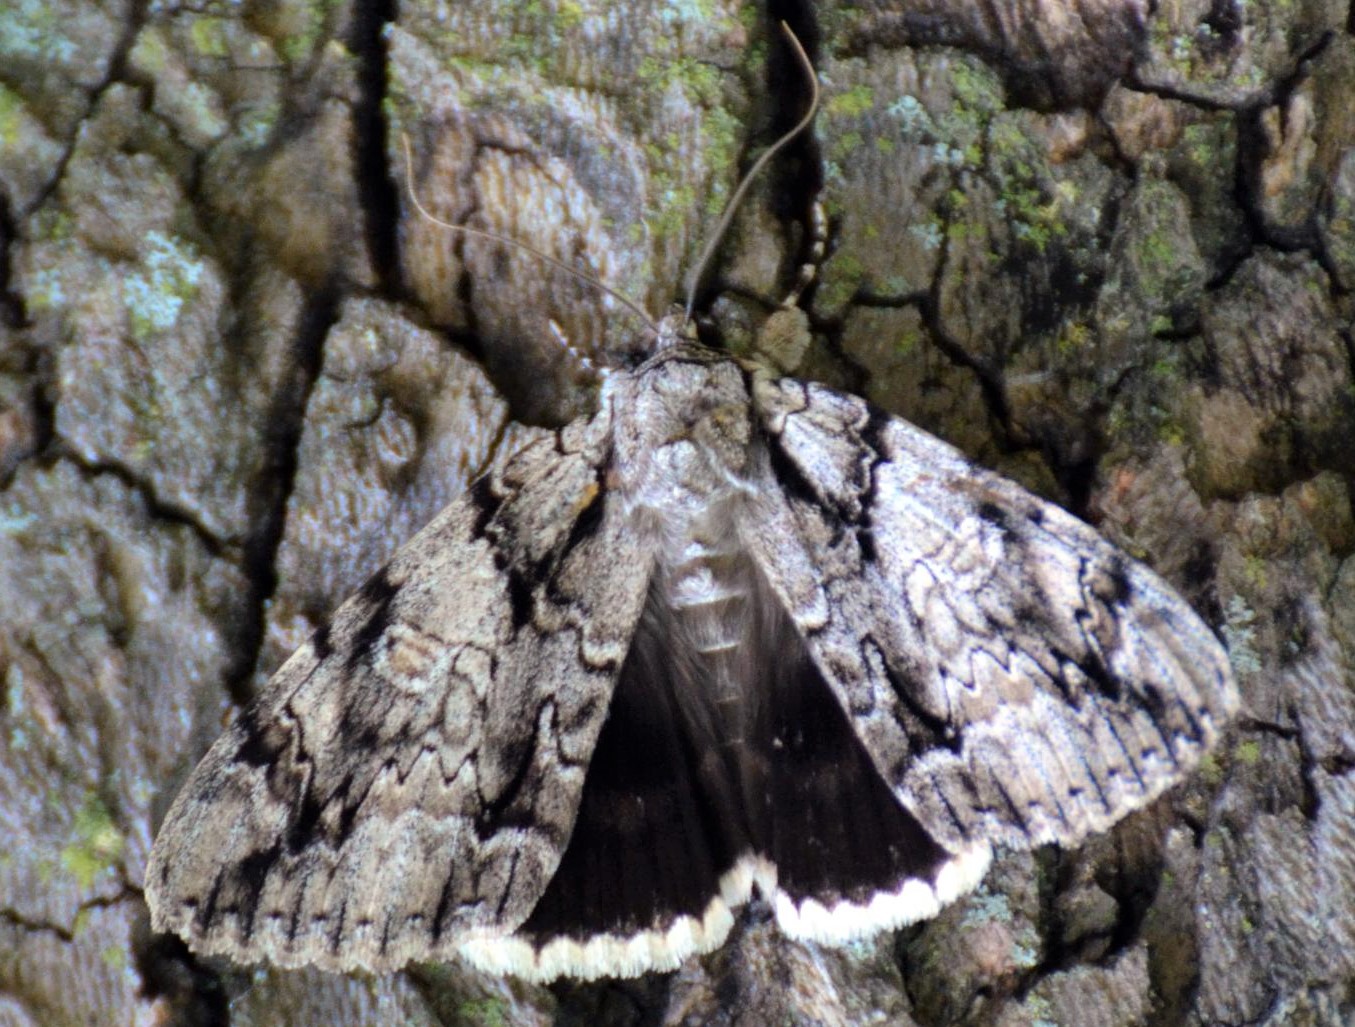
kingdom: Animalia
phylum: Arthropoda
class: Insecta
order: Lepidoptera
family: Erebidae
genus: Catocala
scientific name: Catocala vidua
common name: The widow
